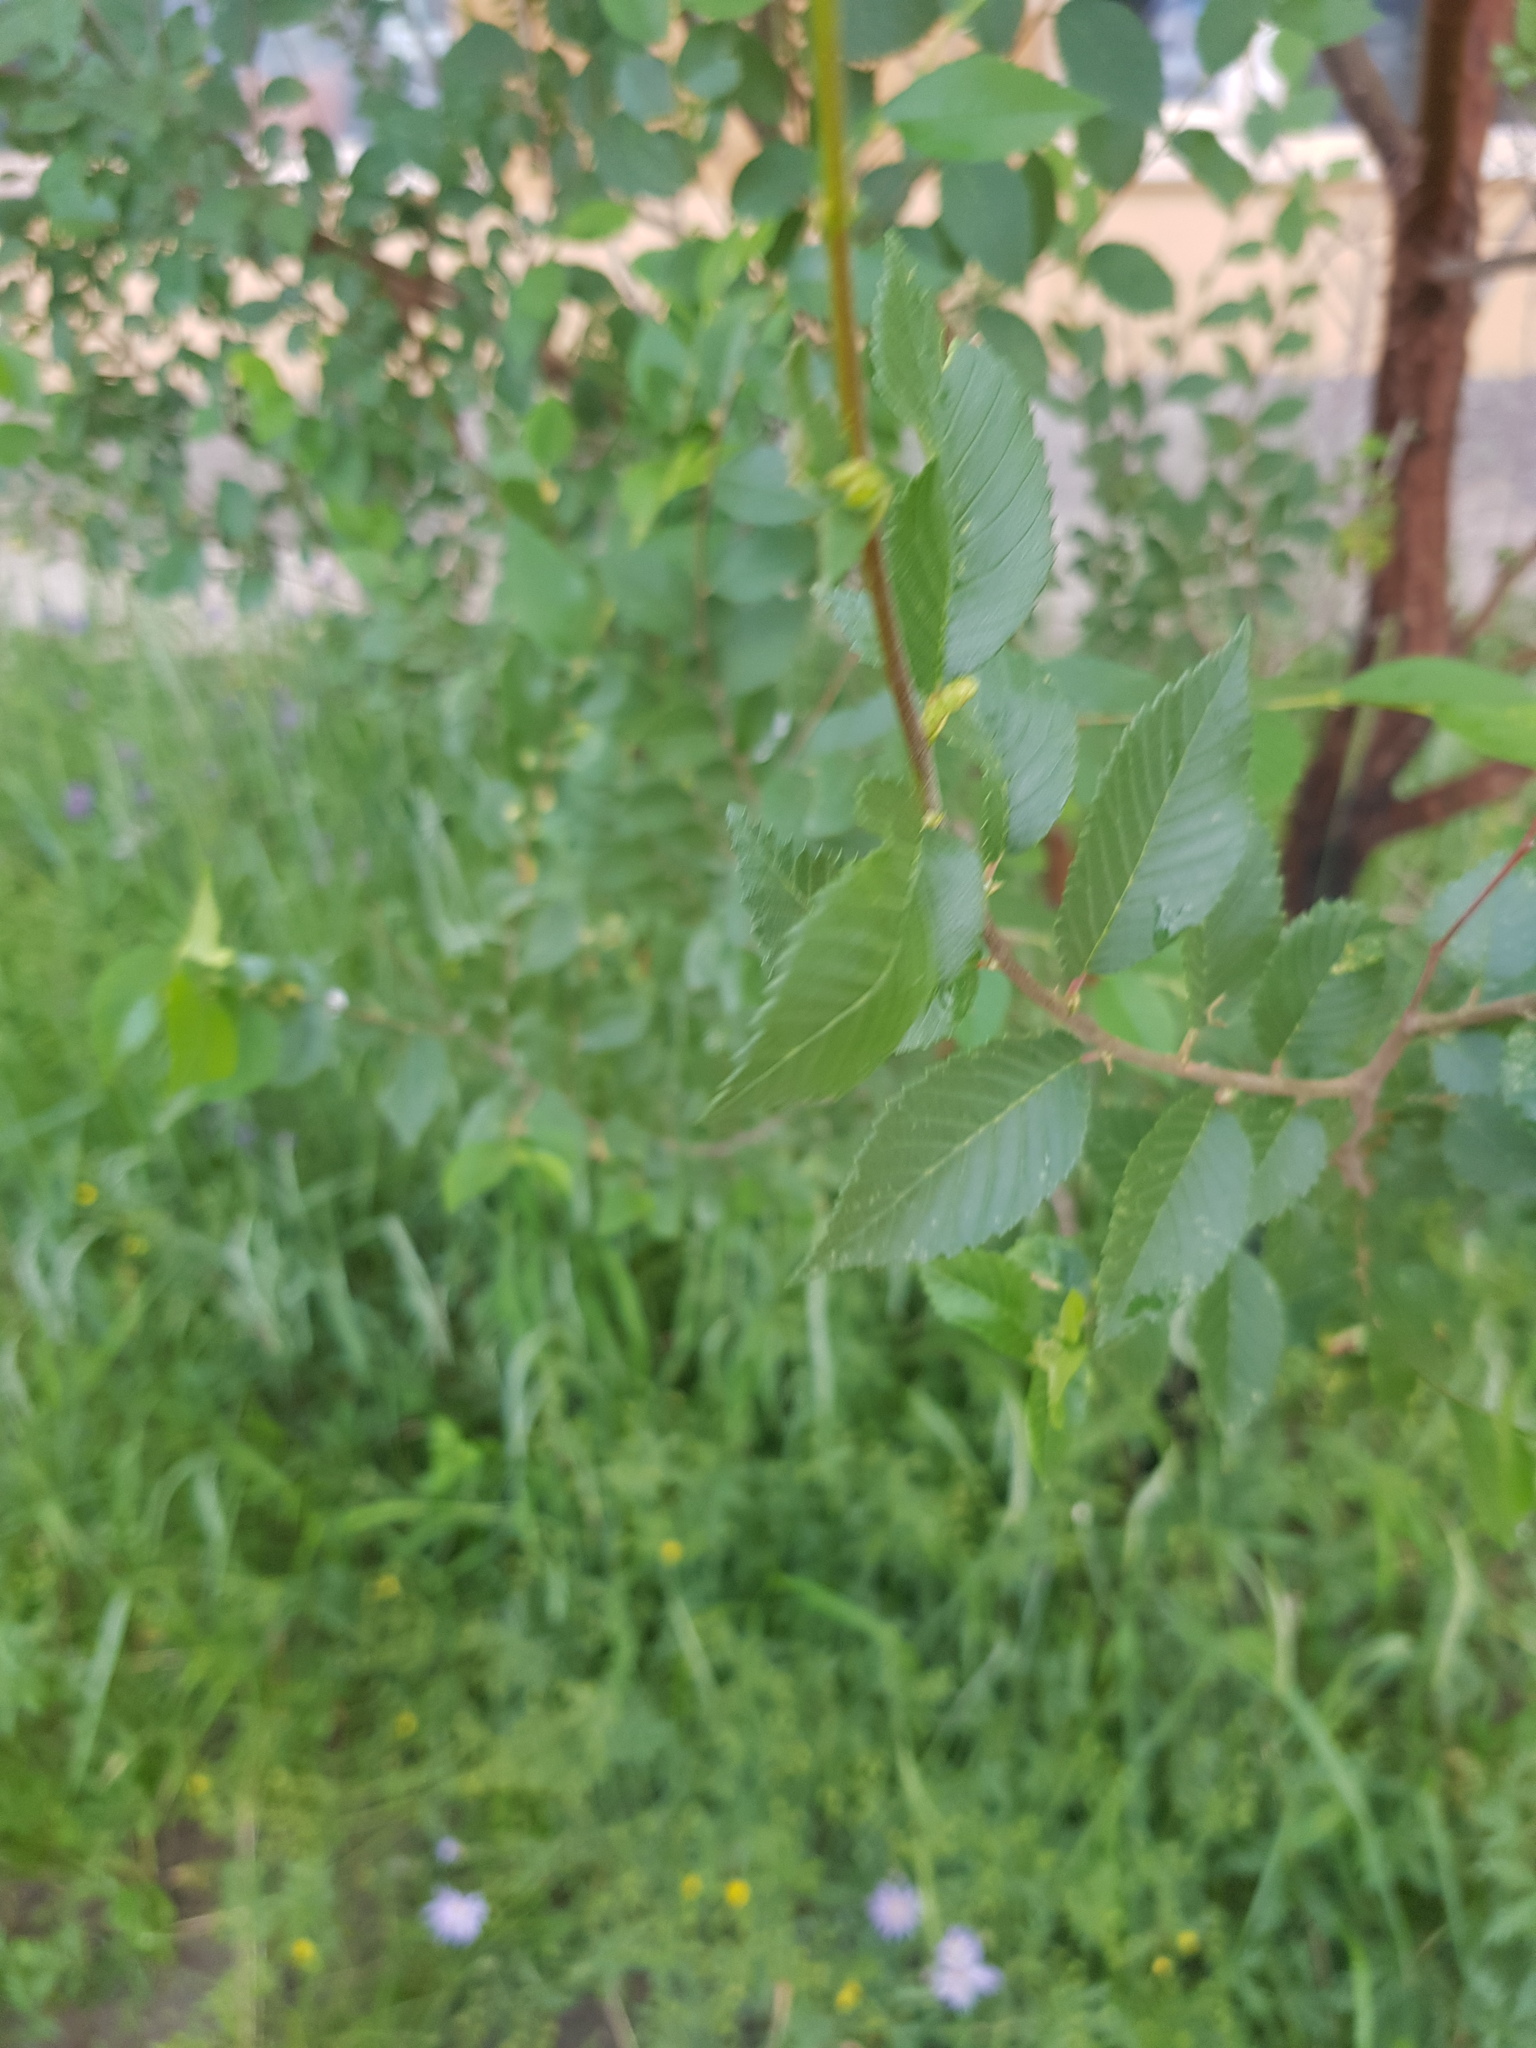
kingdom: Plantae
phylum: Tracheophyta
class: Magnoliopsida
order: Rosales
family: Ulmaceae
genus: Ulmus
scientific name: Ulmus pumila
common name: Siberian elm
